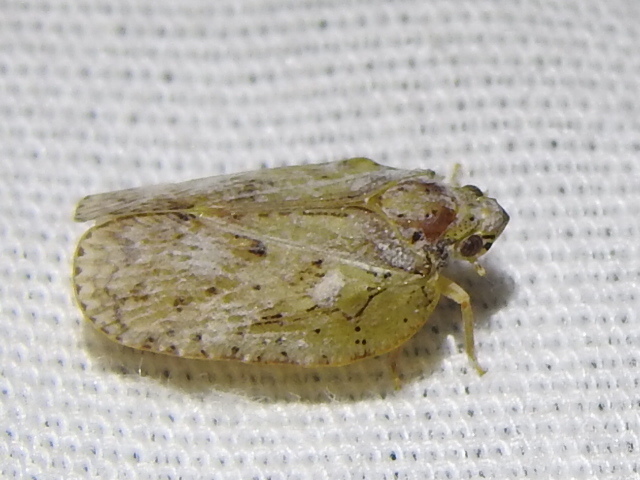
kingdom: Animalia
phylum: Arthropoda
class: Insecta
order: Hemiptera
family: Flatidae
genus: Flatoidinus
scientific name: Flatoidinus punctatus
